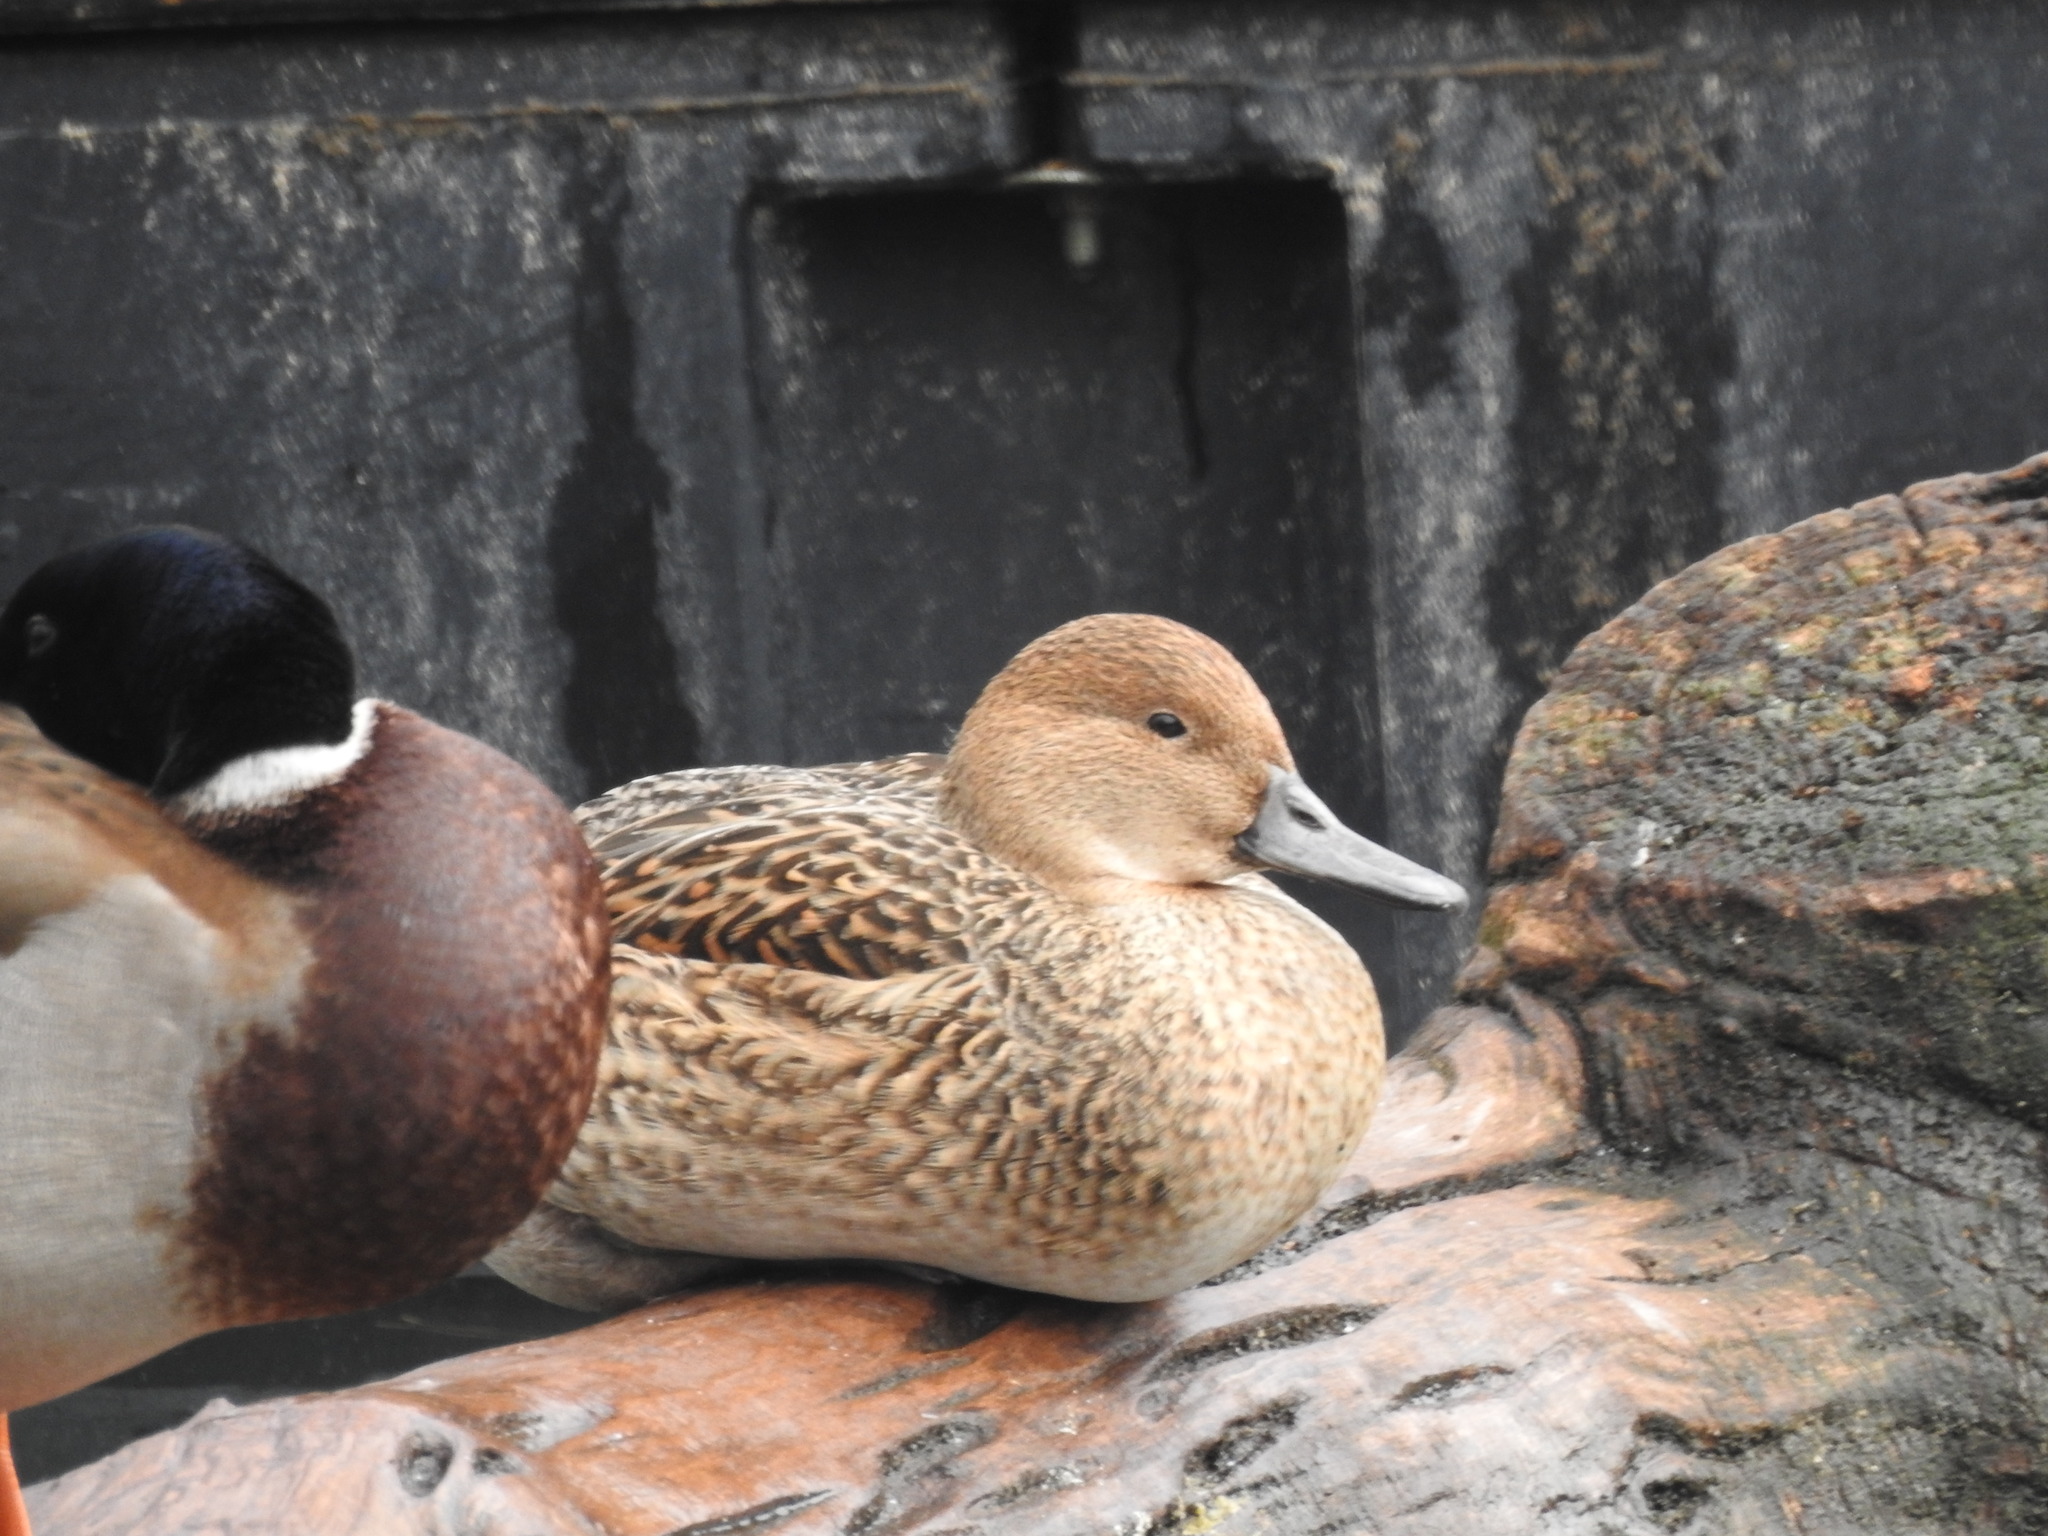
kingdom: Animalia
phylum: Chordata
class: Aves
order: Anseriformes
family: Anatidae
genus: Anas
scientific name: Anas acuta
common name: Northern pintail
